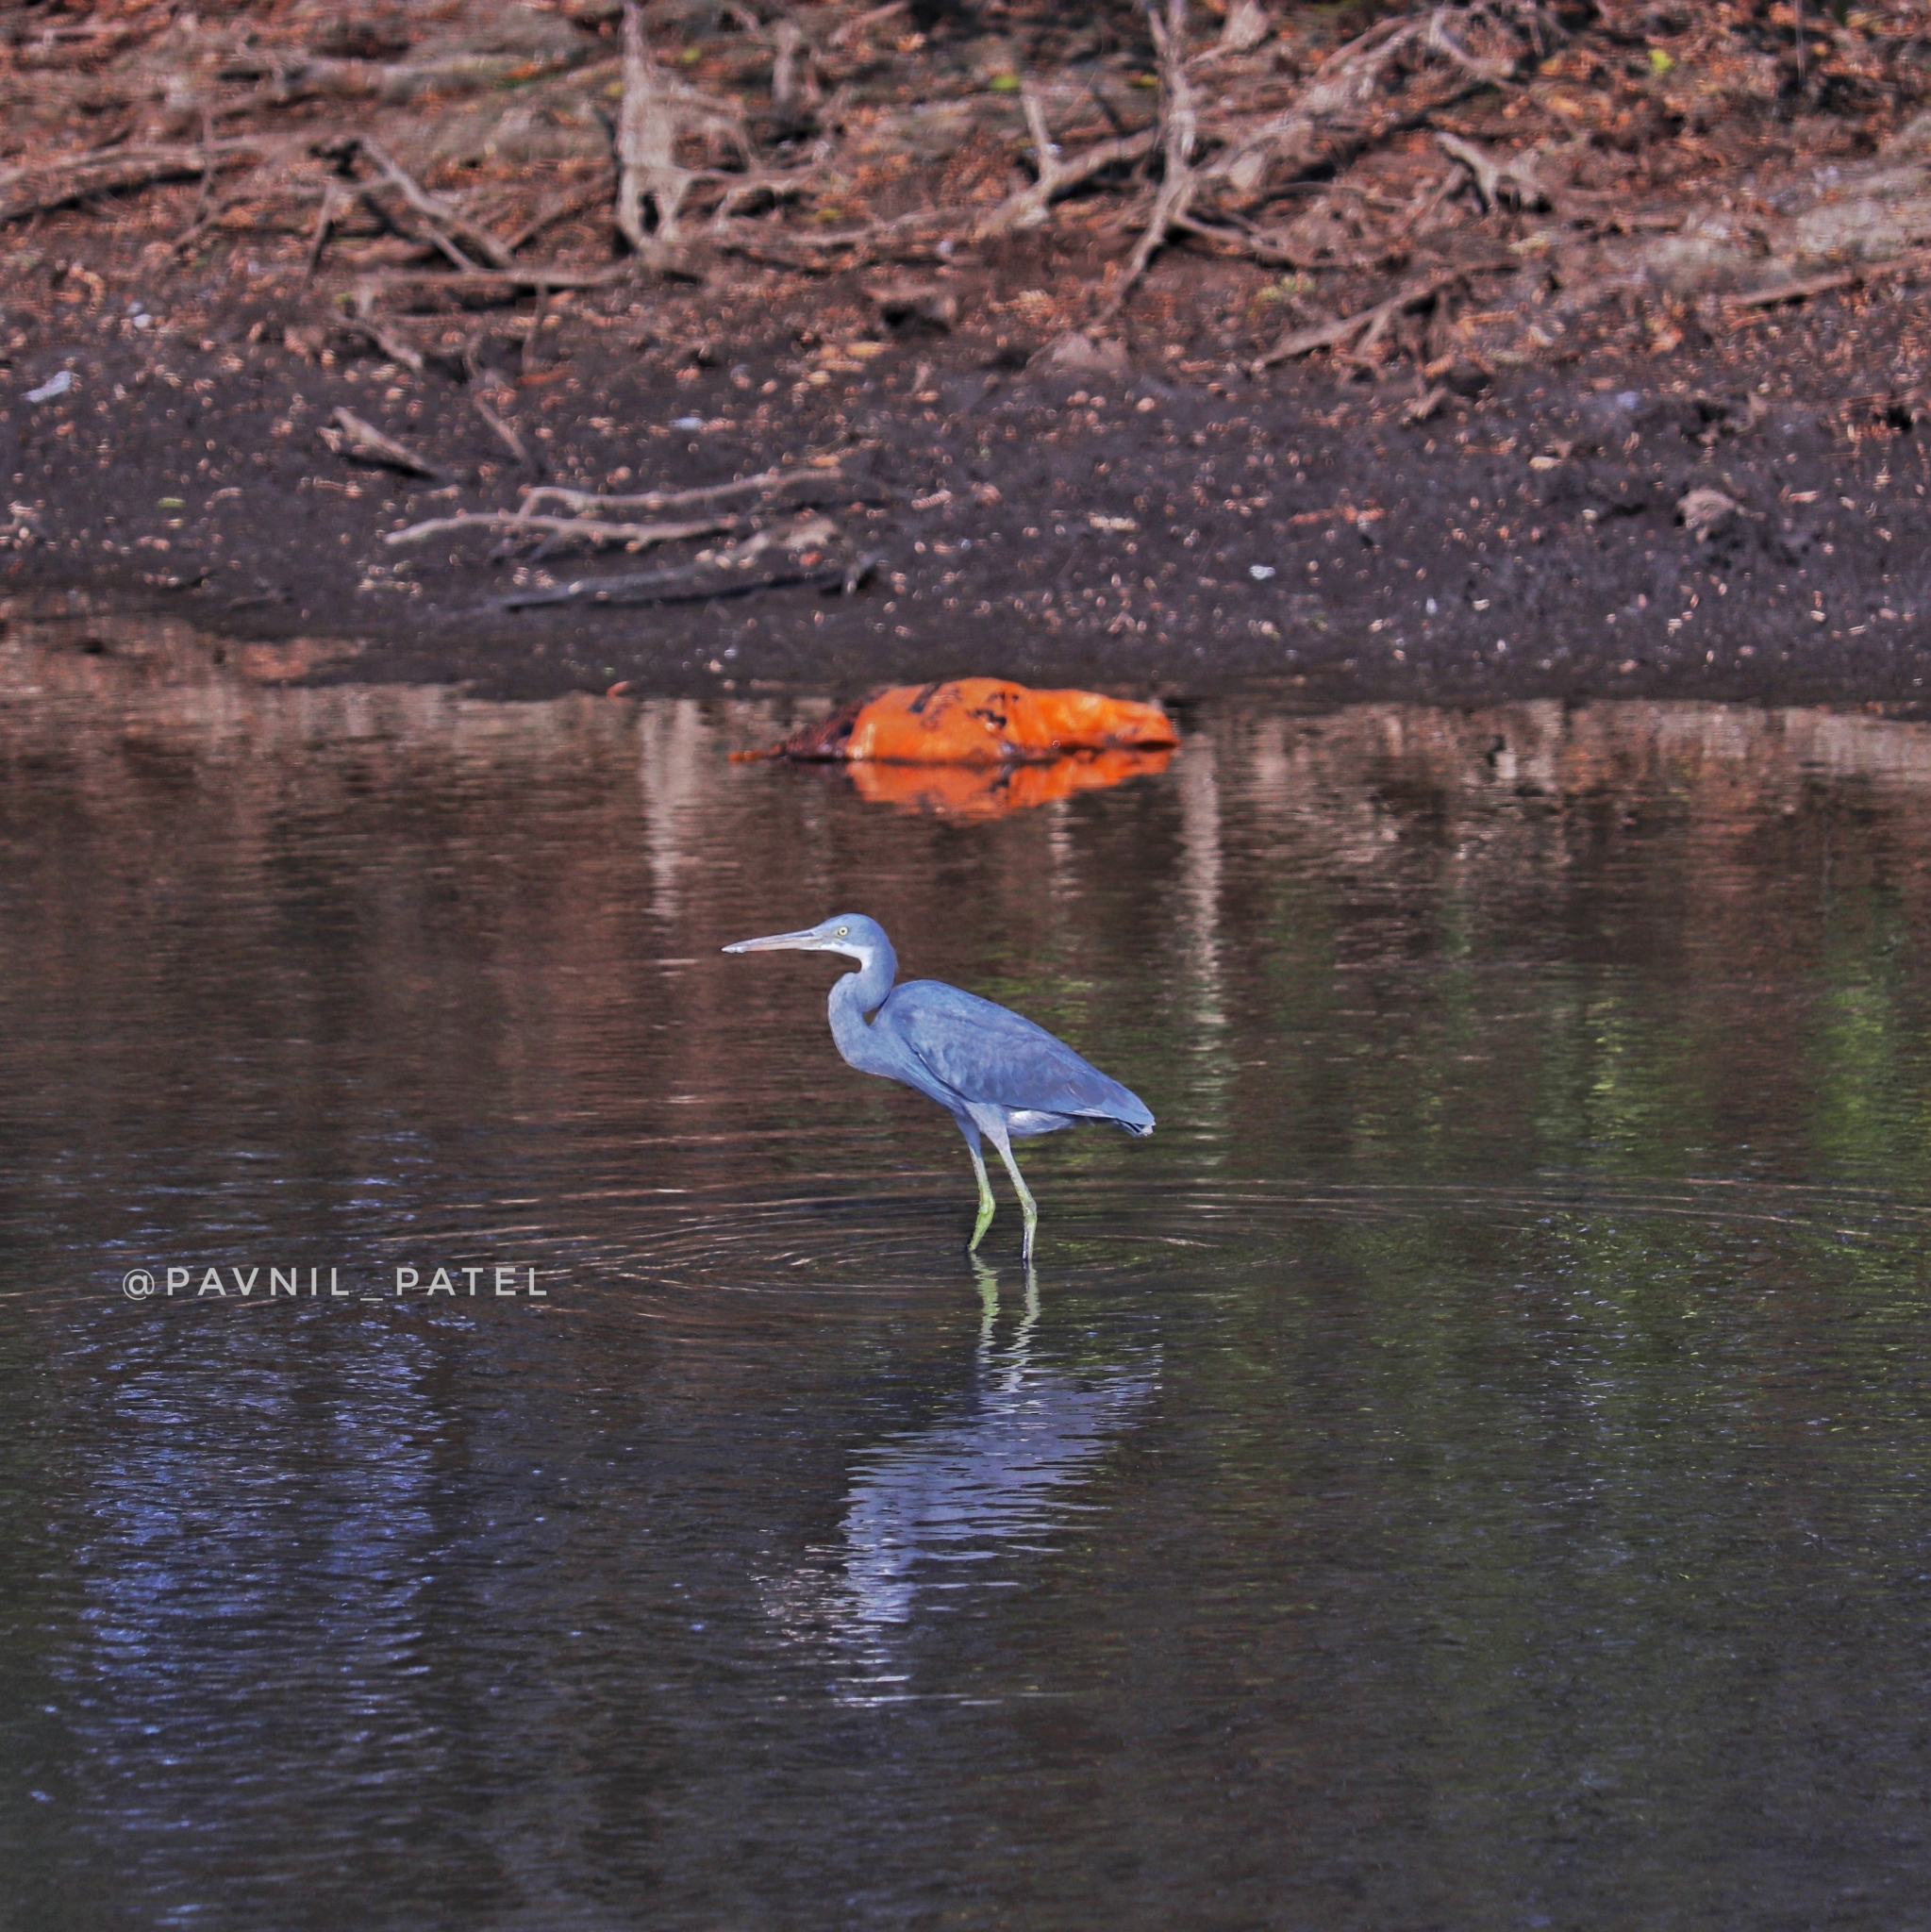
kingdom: Animalia
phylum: Chordata
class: Aves
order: Pelecaniformes
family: Ardeidae
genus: Egretta
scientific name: Egretta gularis
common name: Western reef-heron
